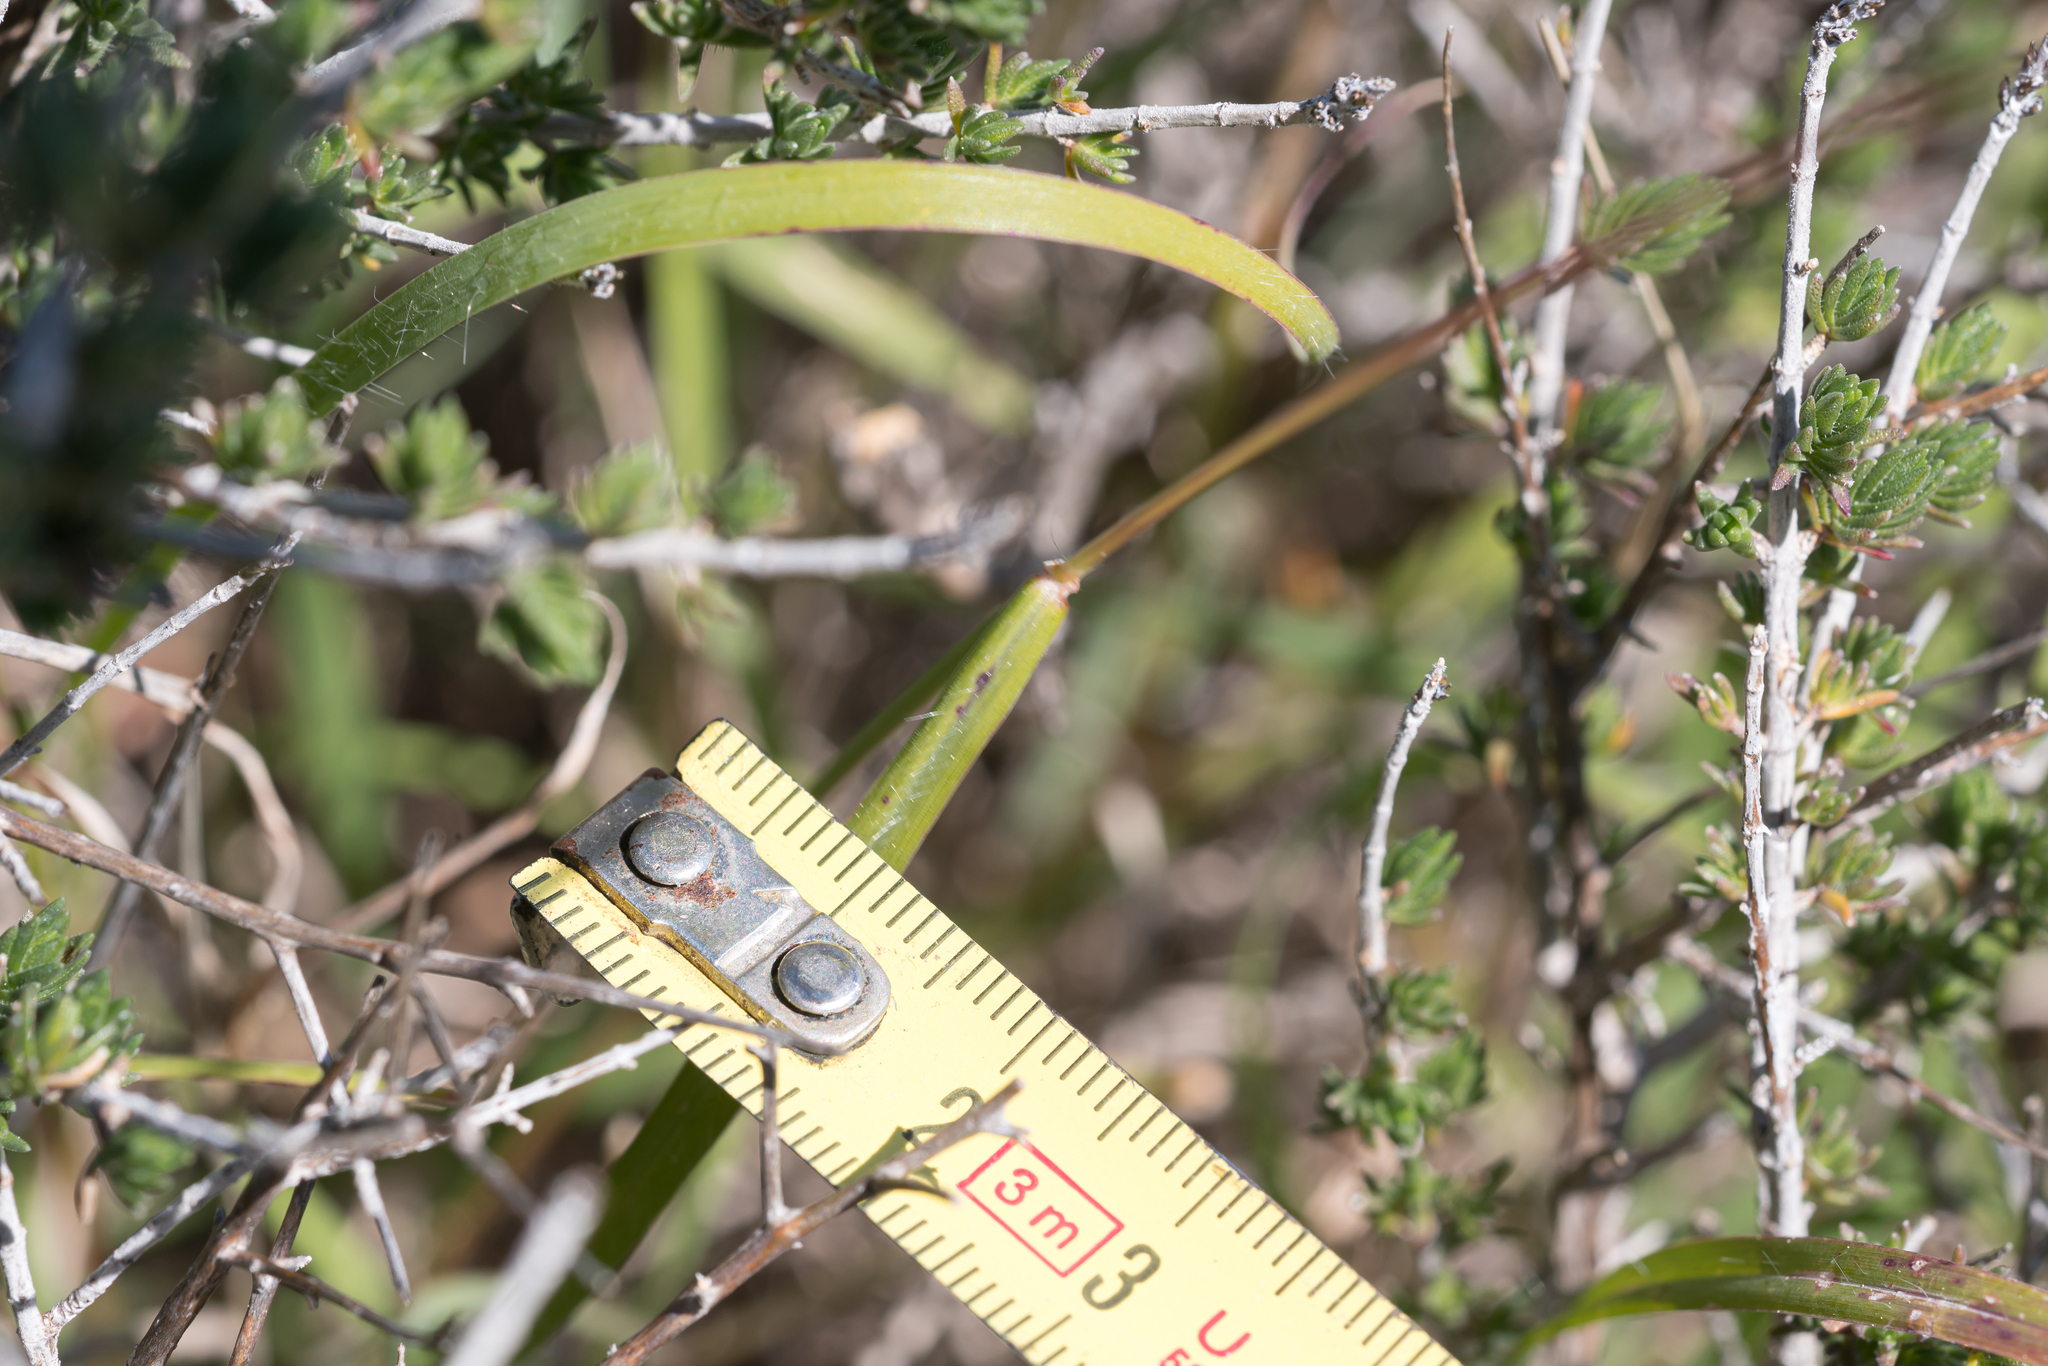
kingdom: Plantae
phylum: Tracheophyta
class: Liliopsida
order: Poales
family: Poaceae
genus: Andropogon
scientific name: Andropogon distachyos
